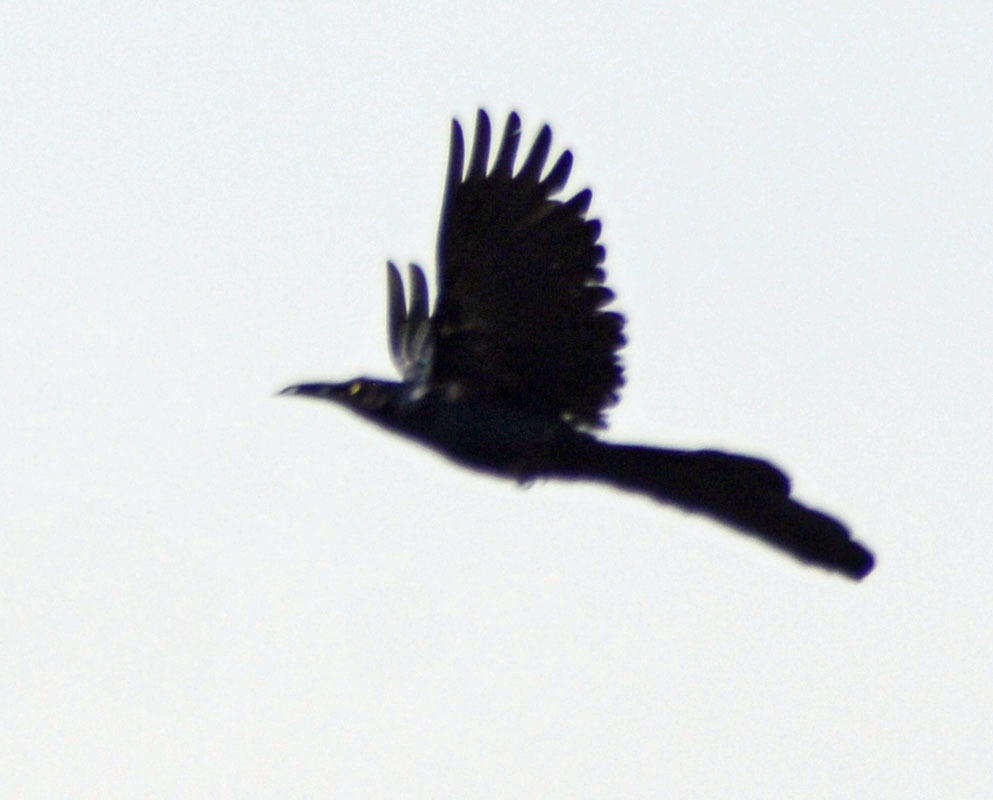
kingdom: Animalia
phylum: Chordata
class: Aves
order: Passeriformes
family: Icteridae
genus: Quiscalus
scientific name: Quiscalus mexicanus
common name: Great-tailed grackle
